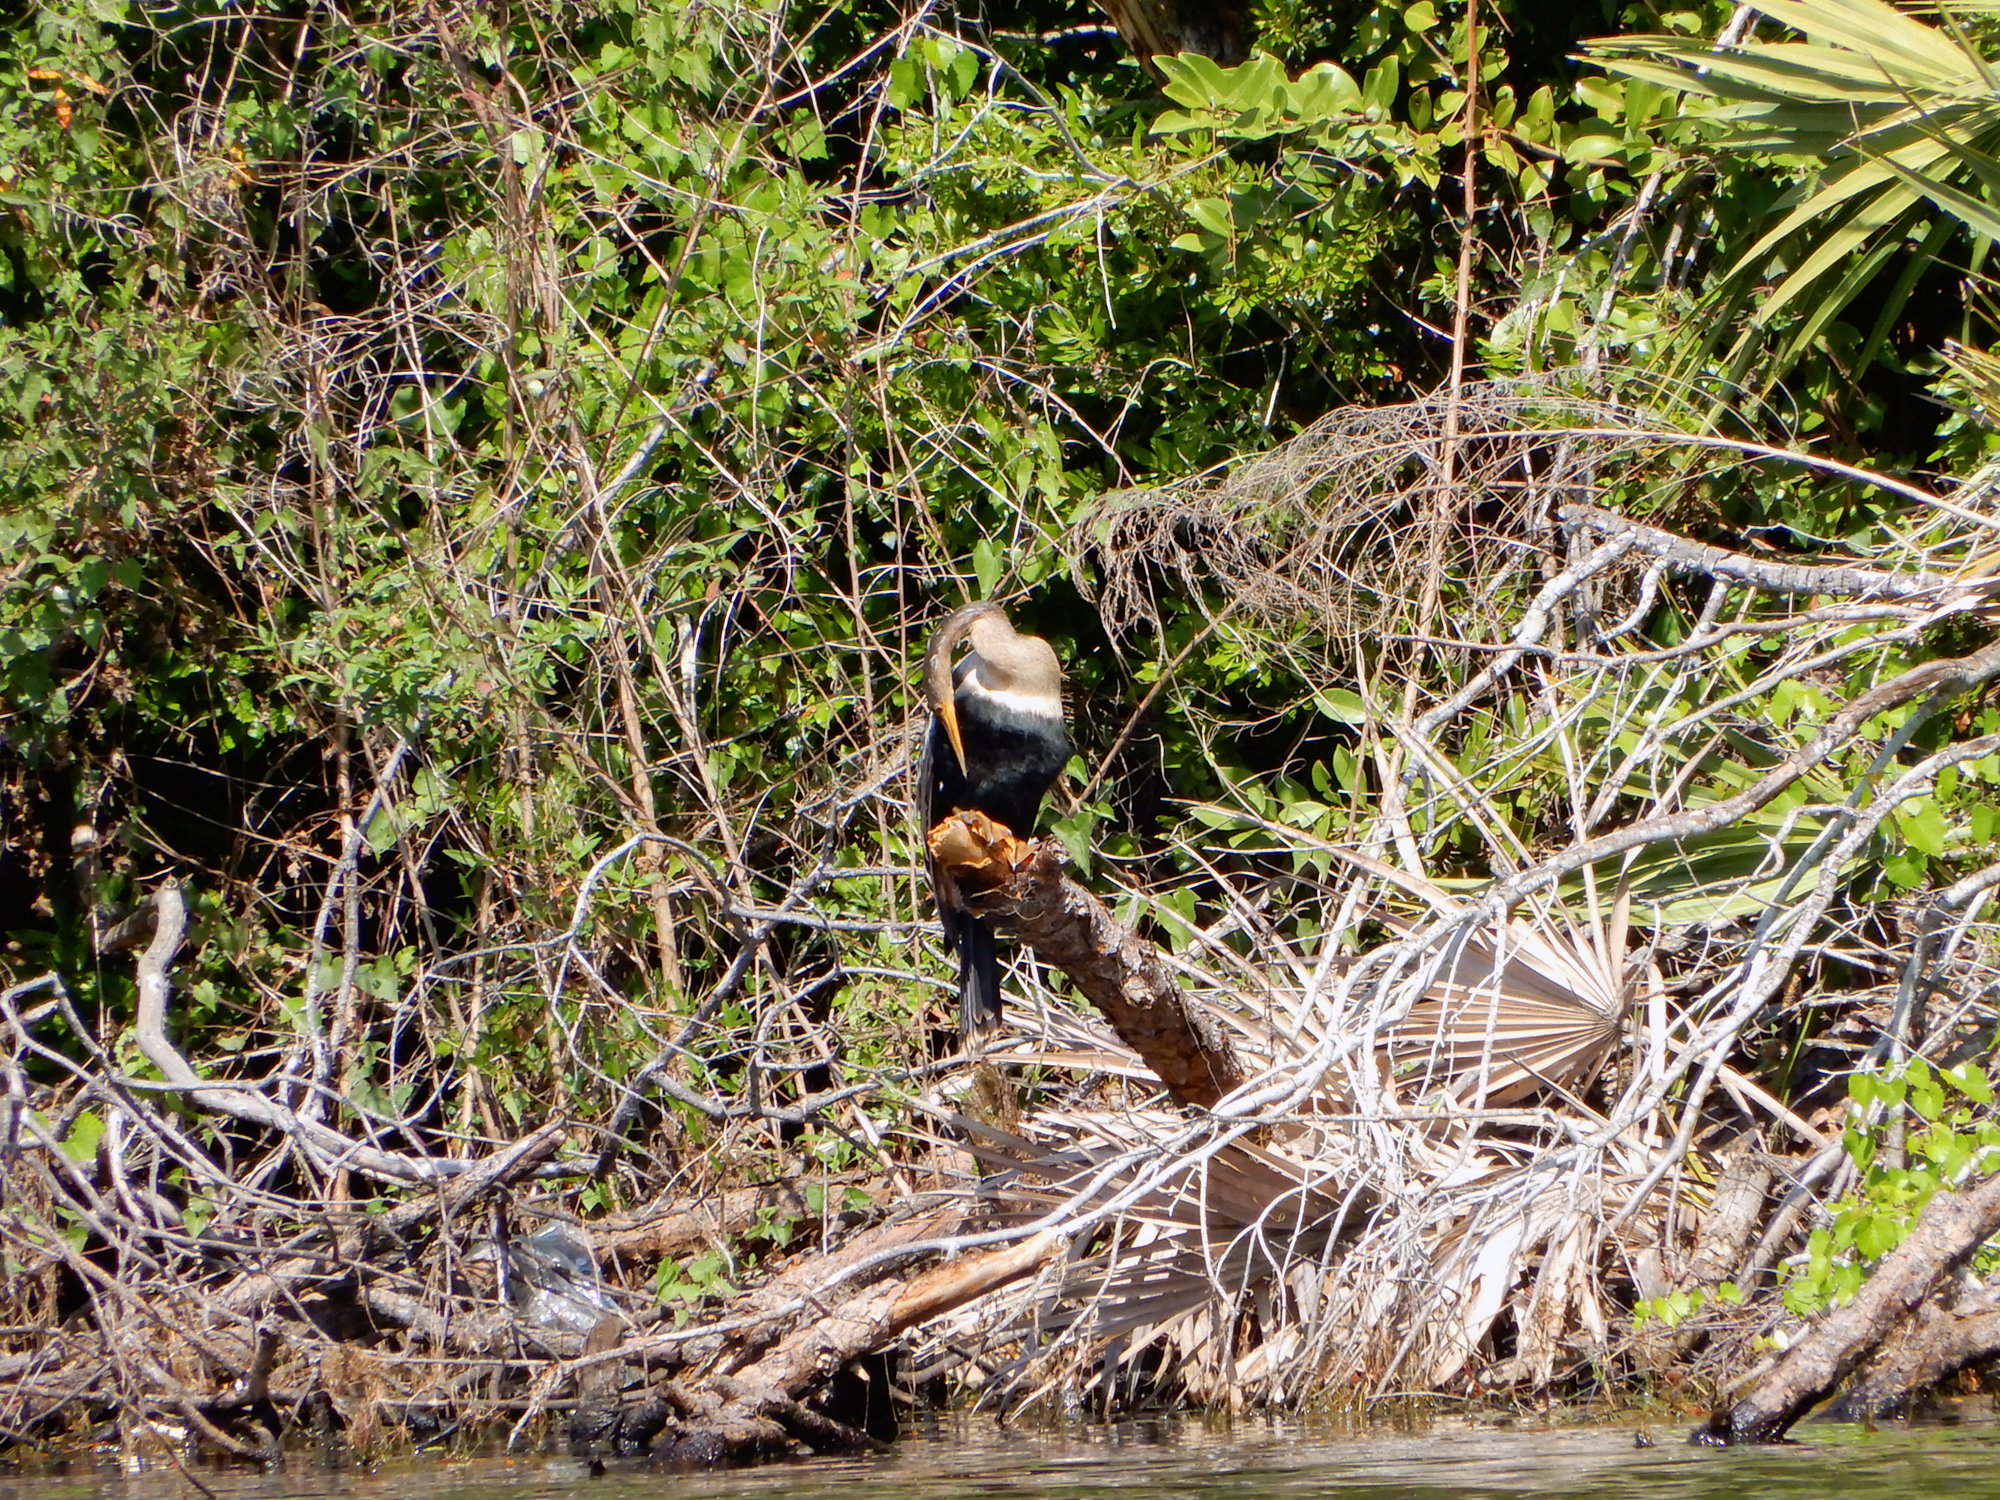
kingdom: Animalia
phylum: Chordata
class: Aves
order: Suliformes
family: Anhingidae
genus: Anhinga
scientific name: Anhinga anhinga
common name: Anhinga
